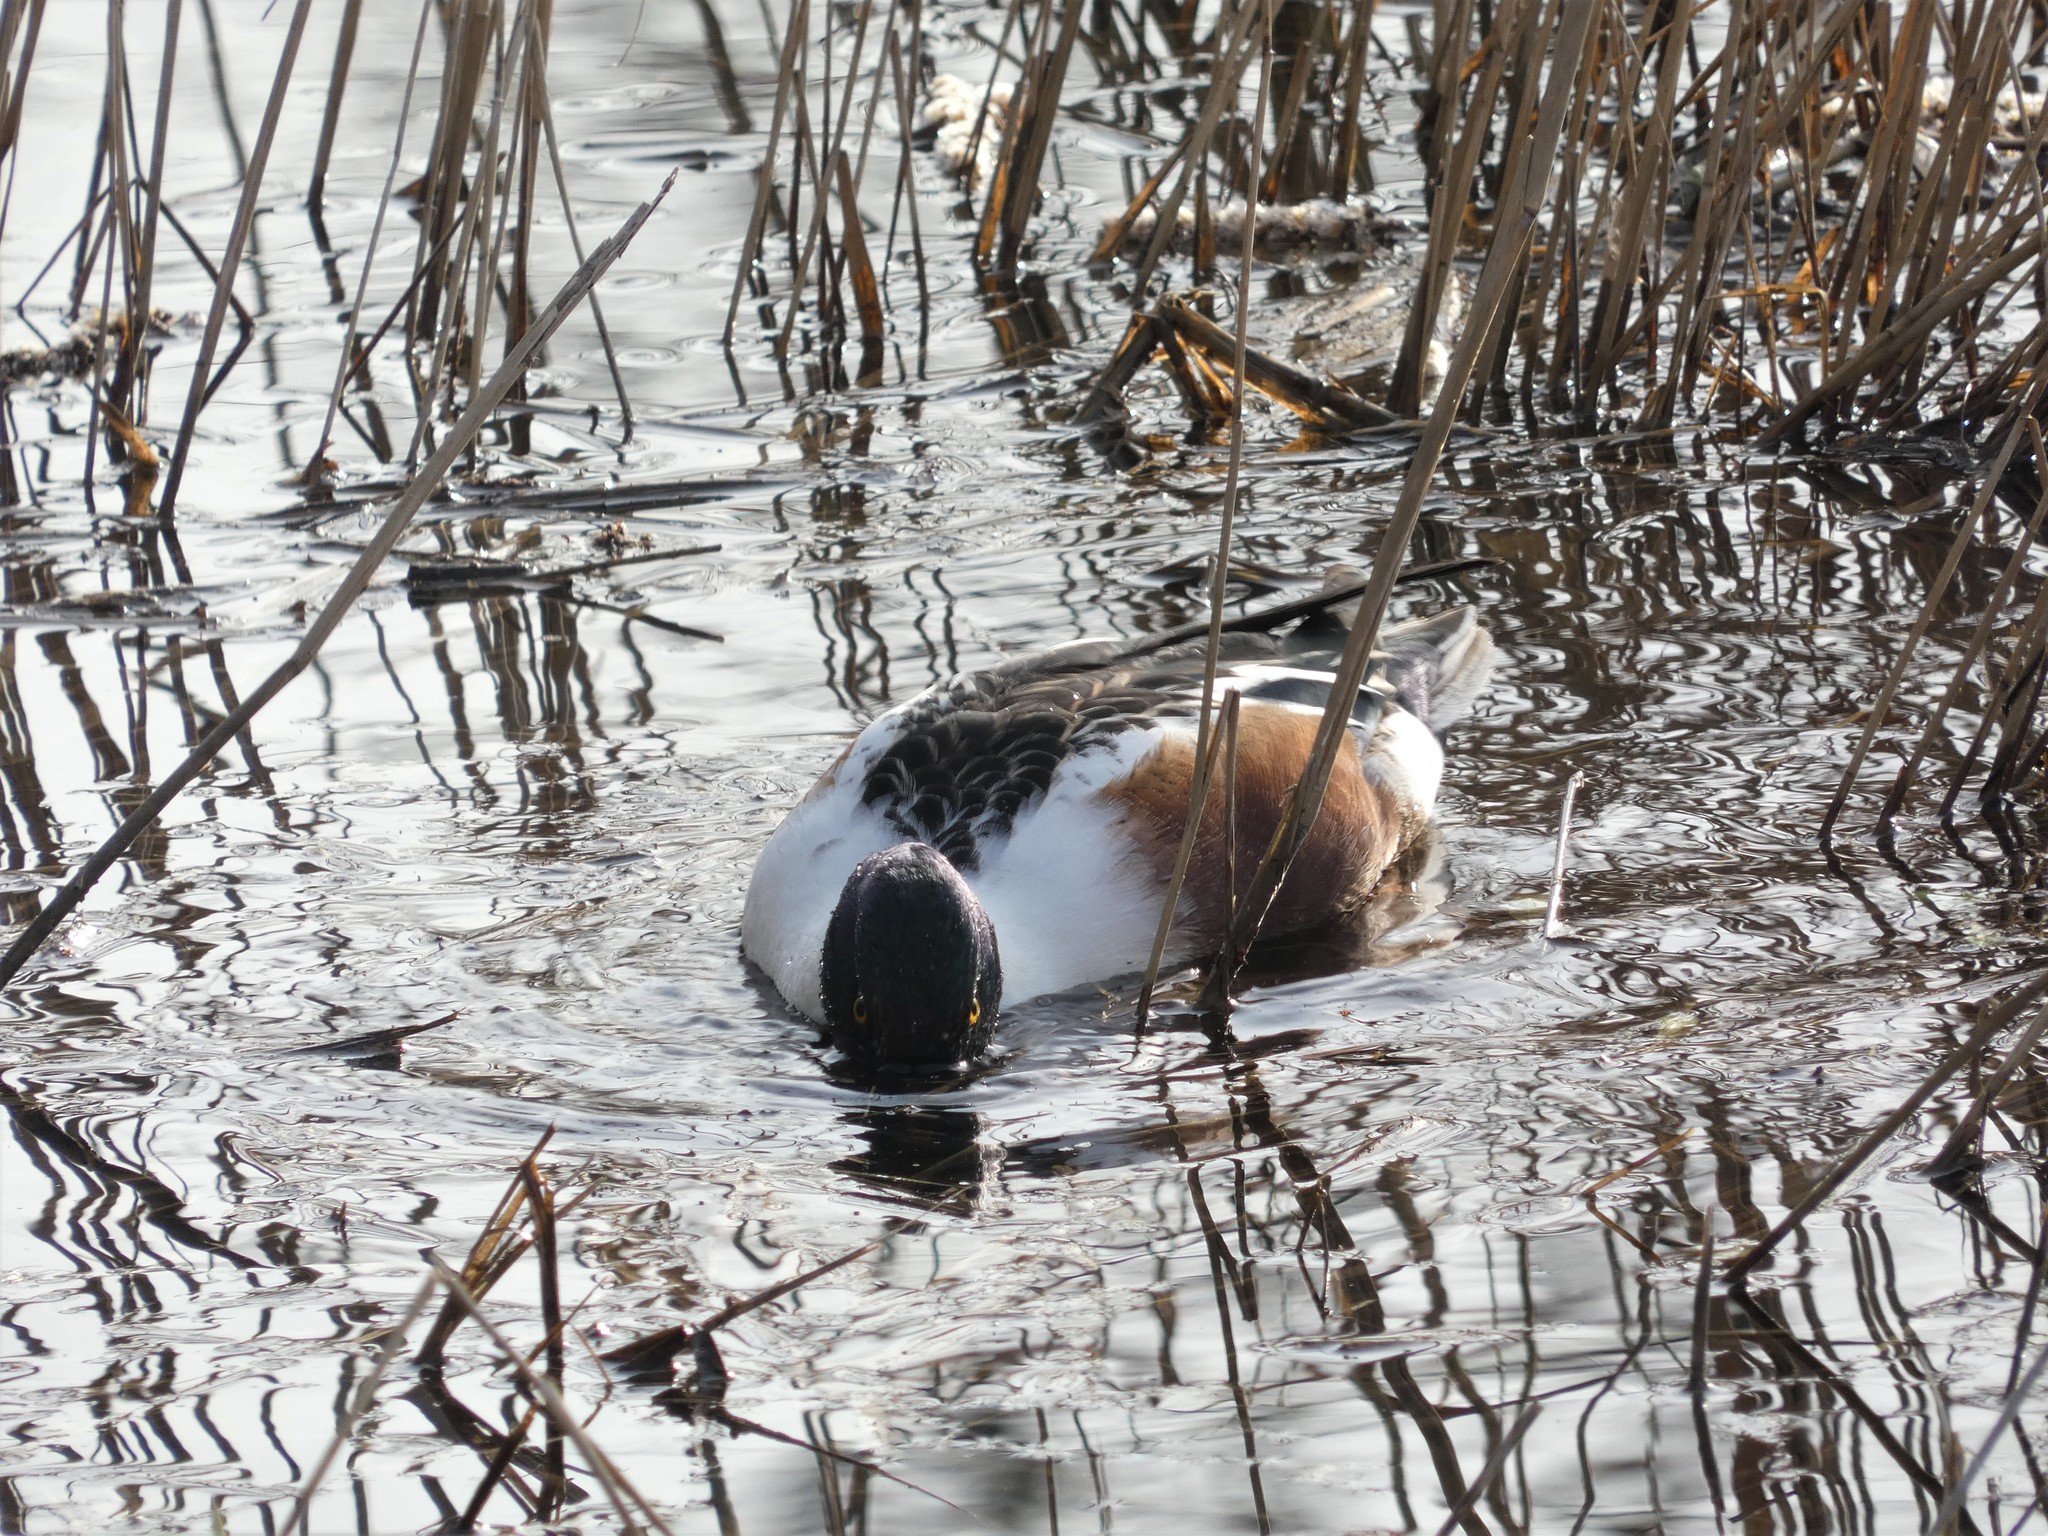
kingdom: Animalia
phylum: Chordata
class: Aves
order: Anseriformes
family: Anatidae
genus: Spatula
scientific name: Spatula clypeata
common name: Northern shoveler
